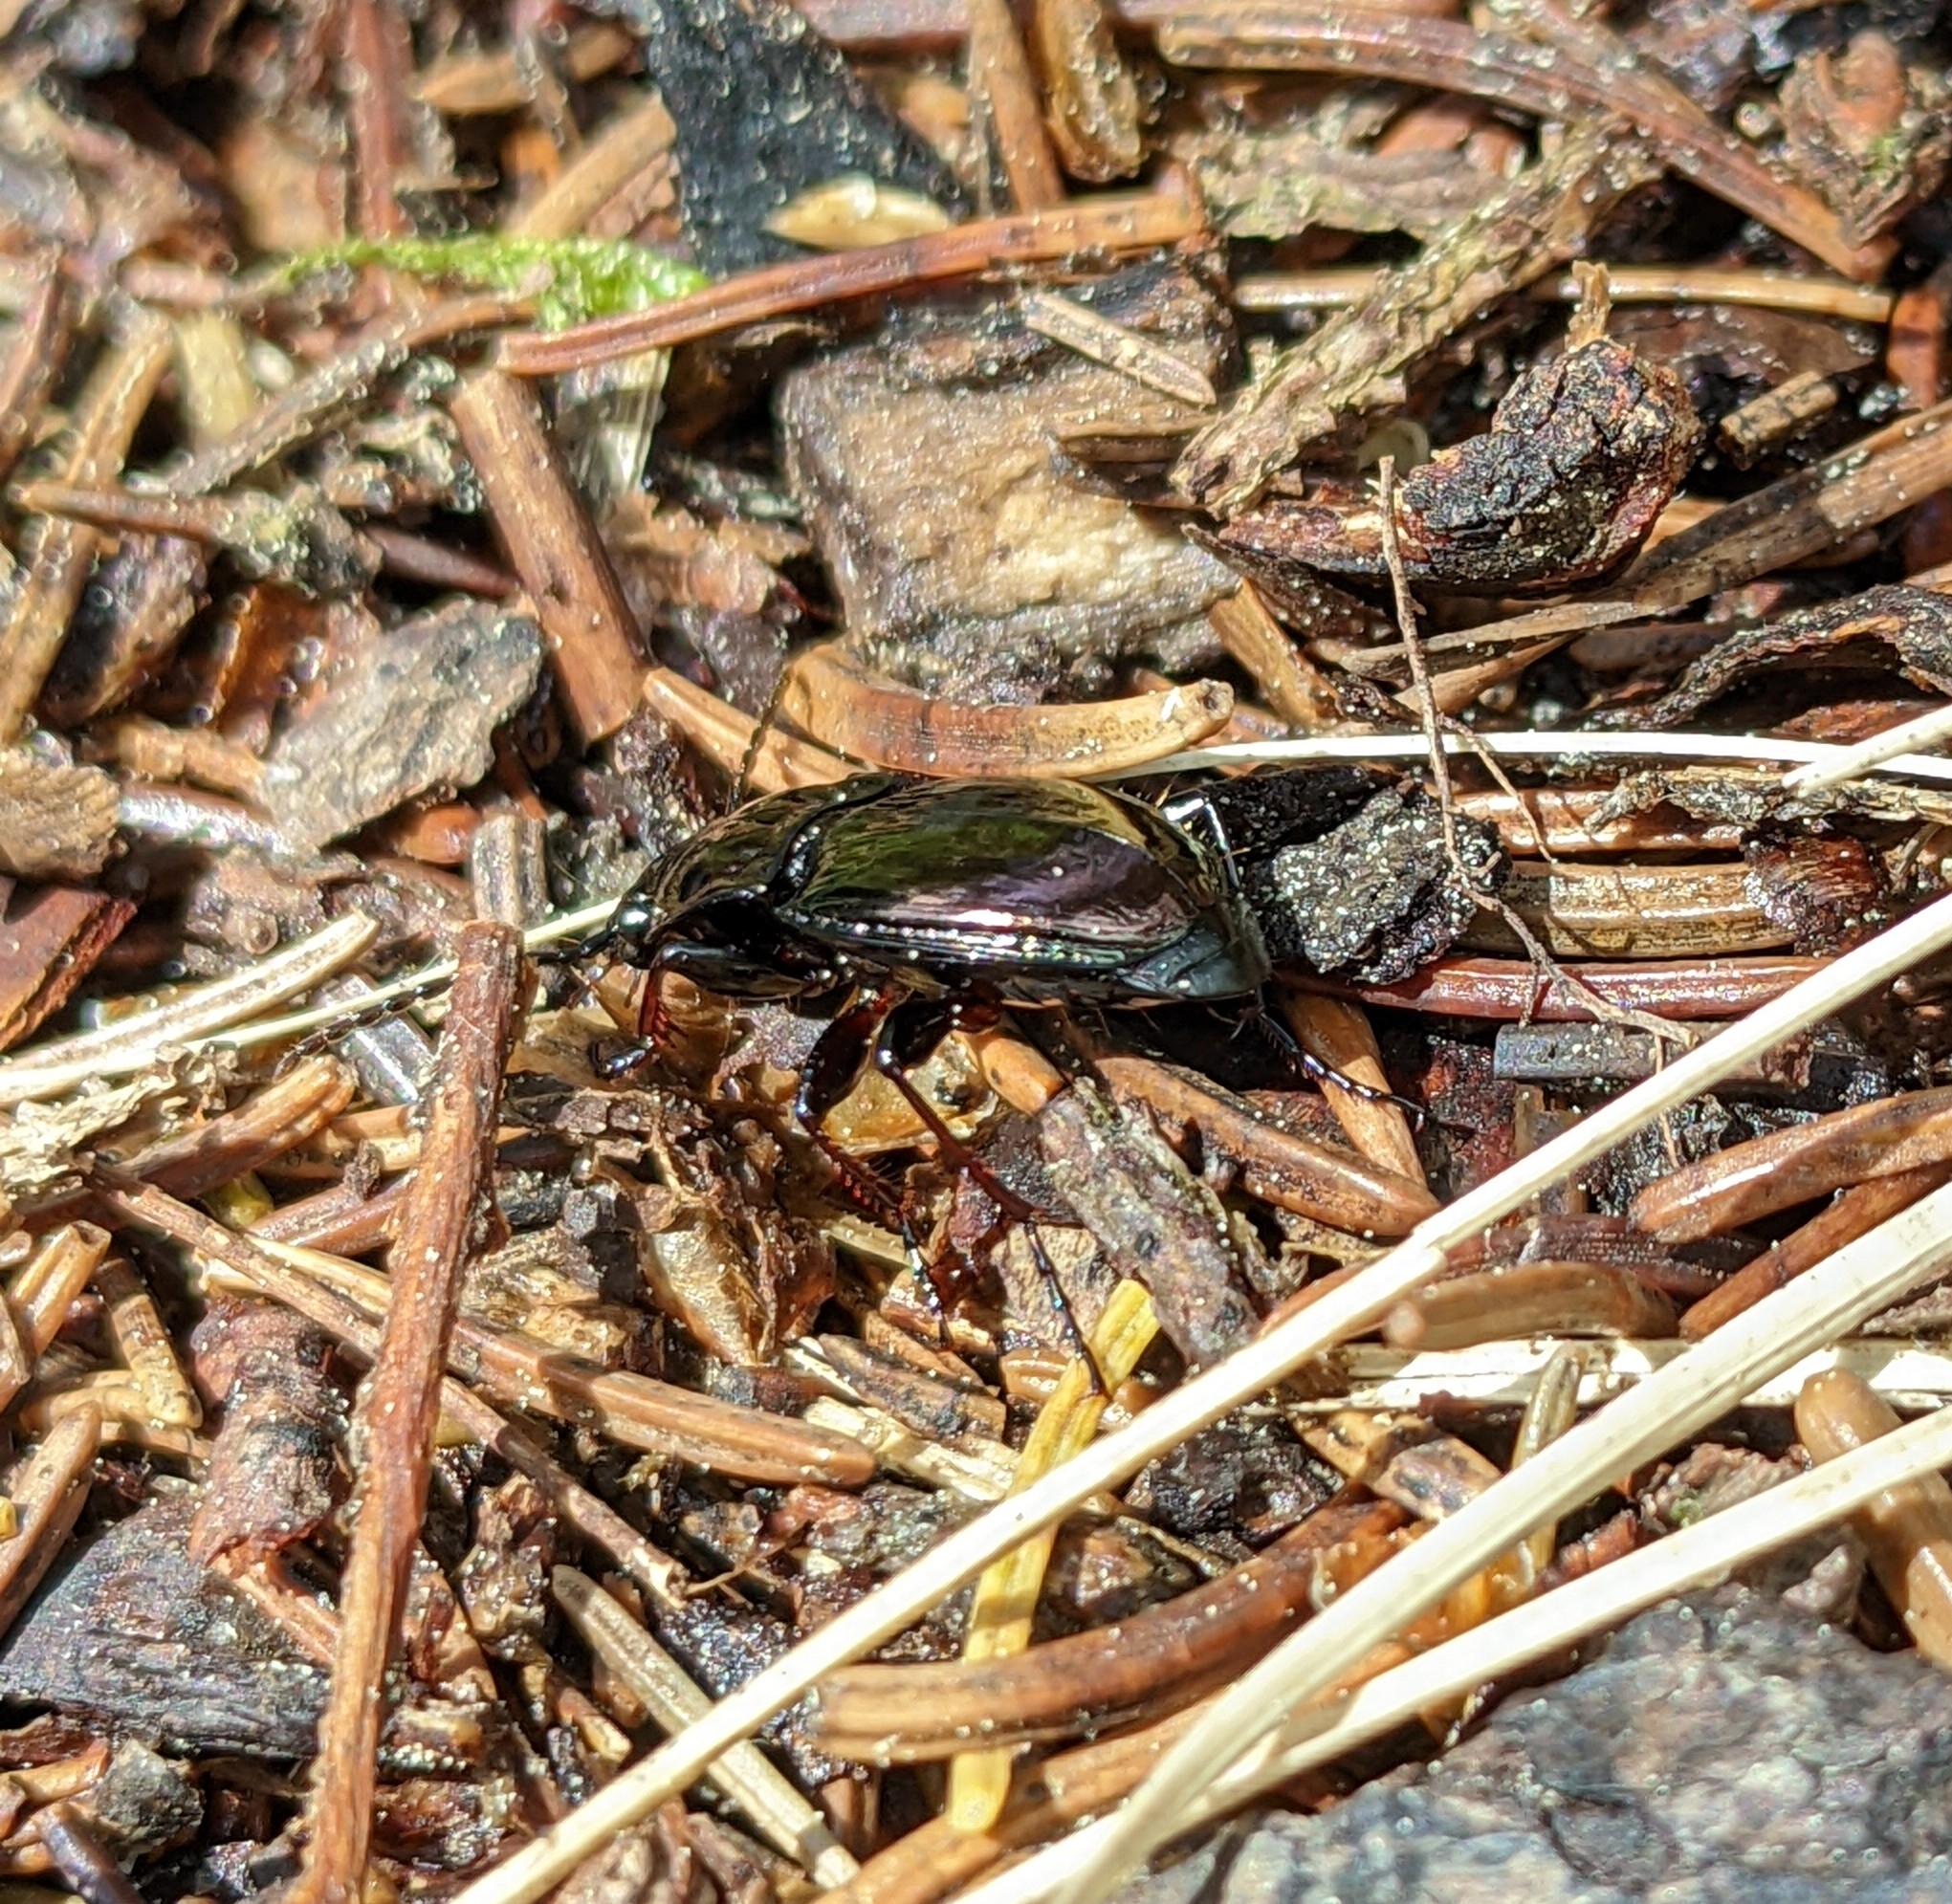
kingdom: Animalia
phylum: Arthropoda
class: Insecta
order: Coleoptera
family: Carabidae
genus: Pterostichus
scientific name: Pterostichus burmeisteri
